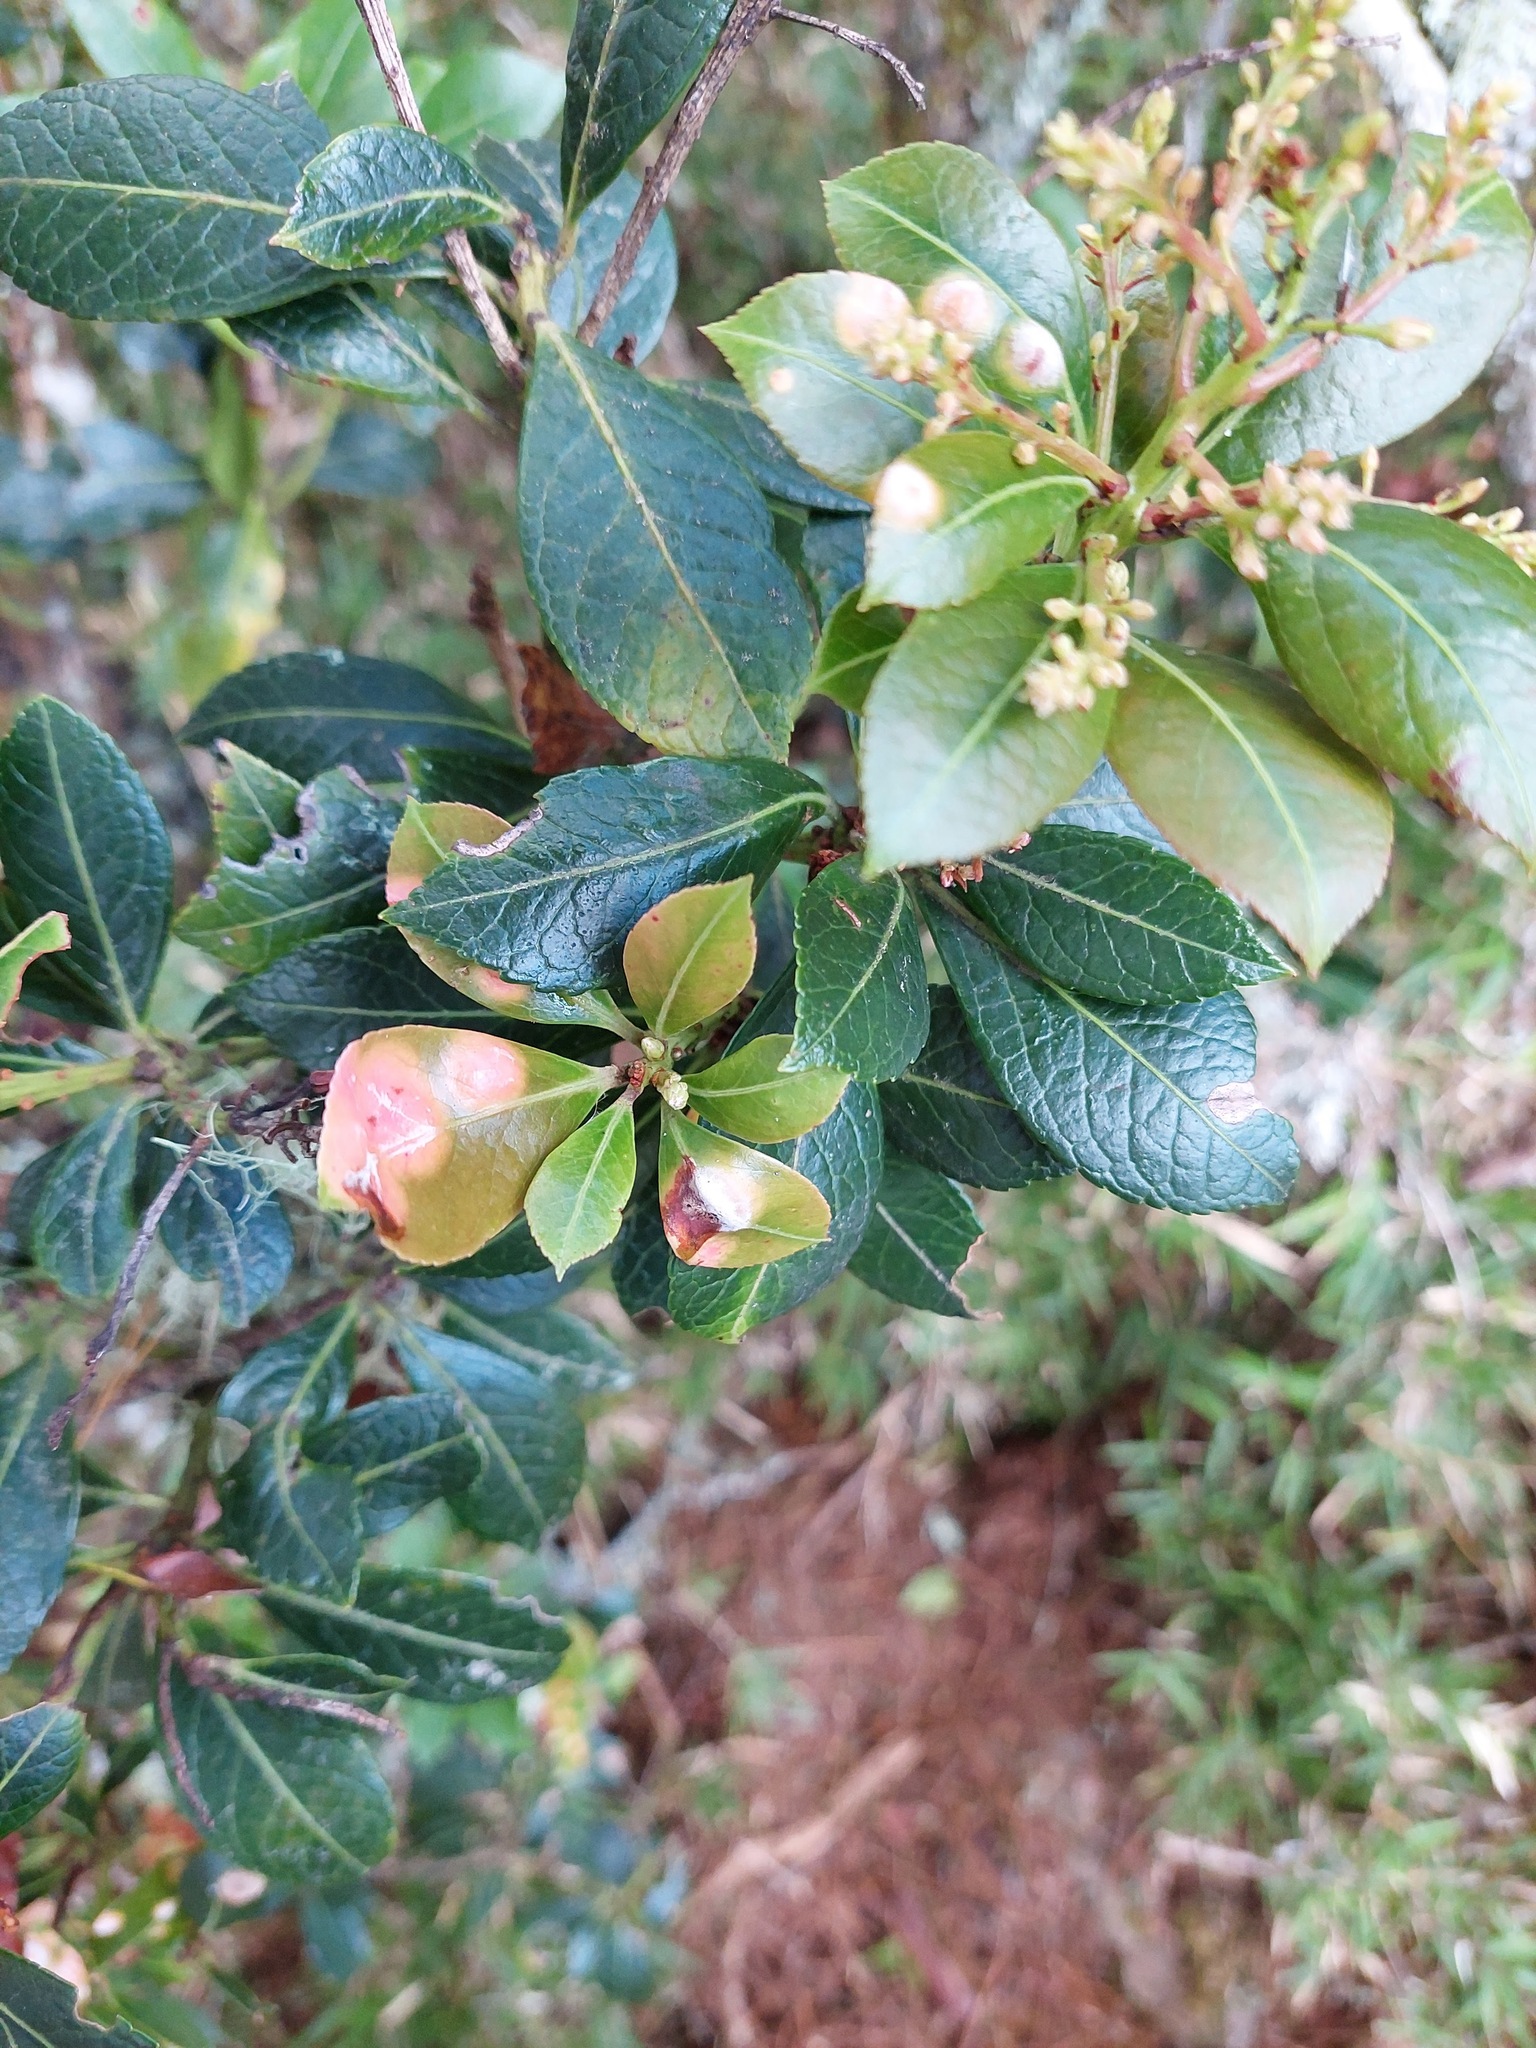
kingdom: Plantae
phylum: Tracheophyta
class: Magnoliopsida
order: Rosales
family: Rosaceae
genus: Rhaphiolepis
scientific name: Rhaphiolepis indica
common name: India-hawthorn
